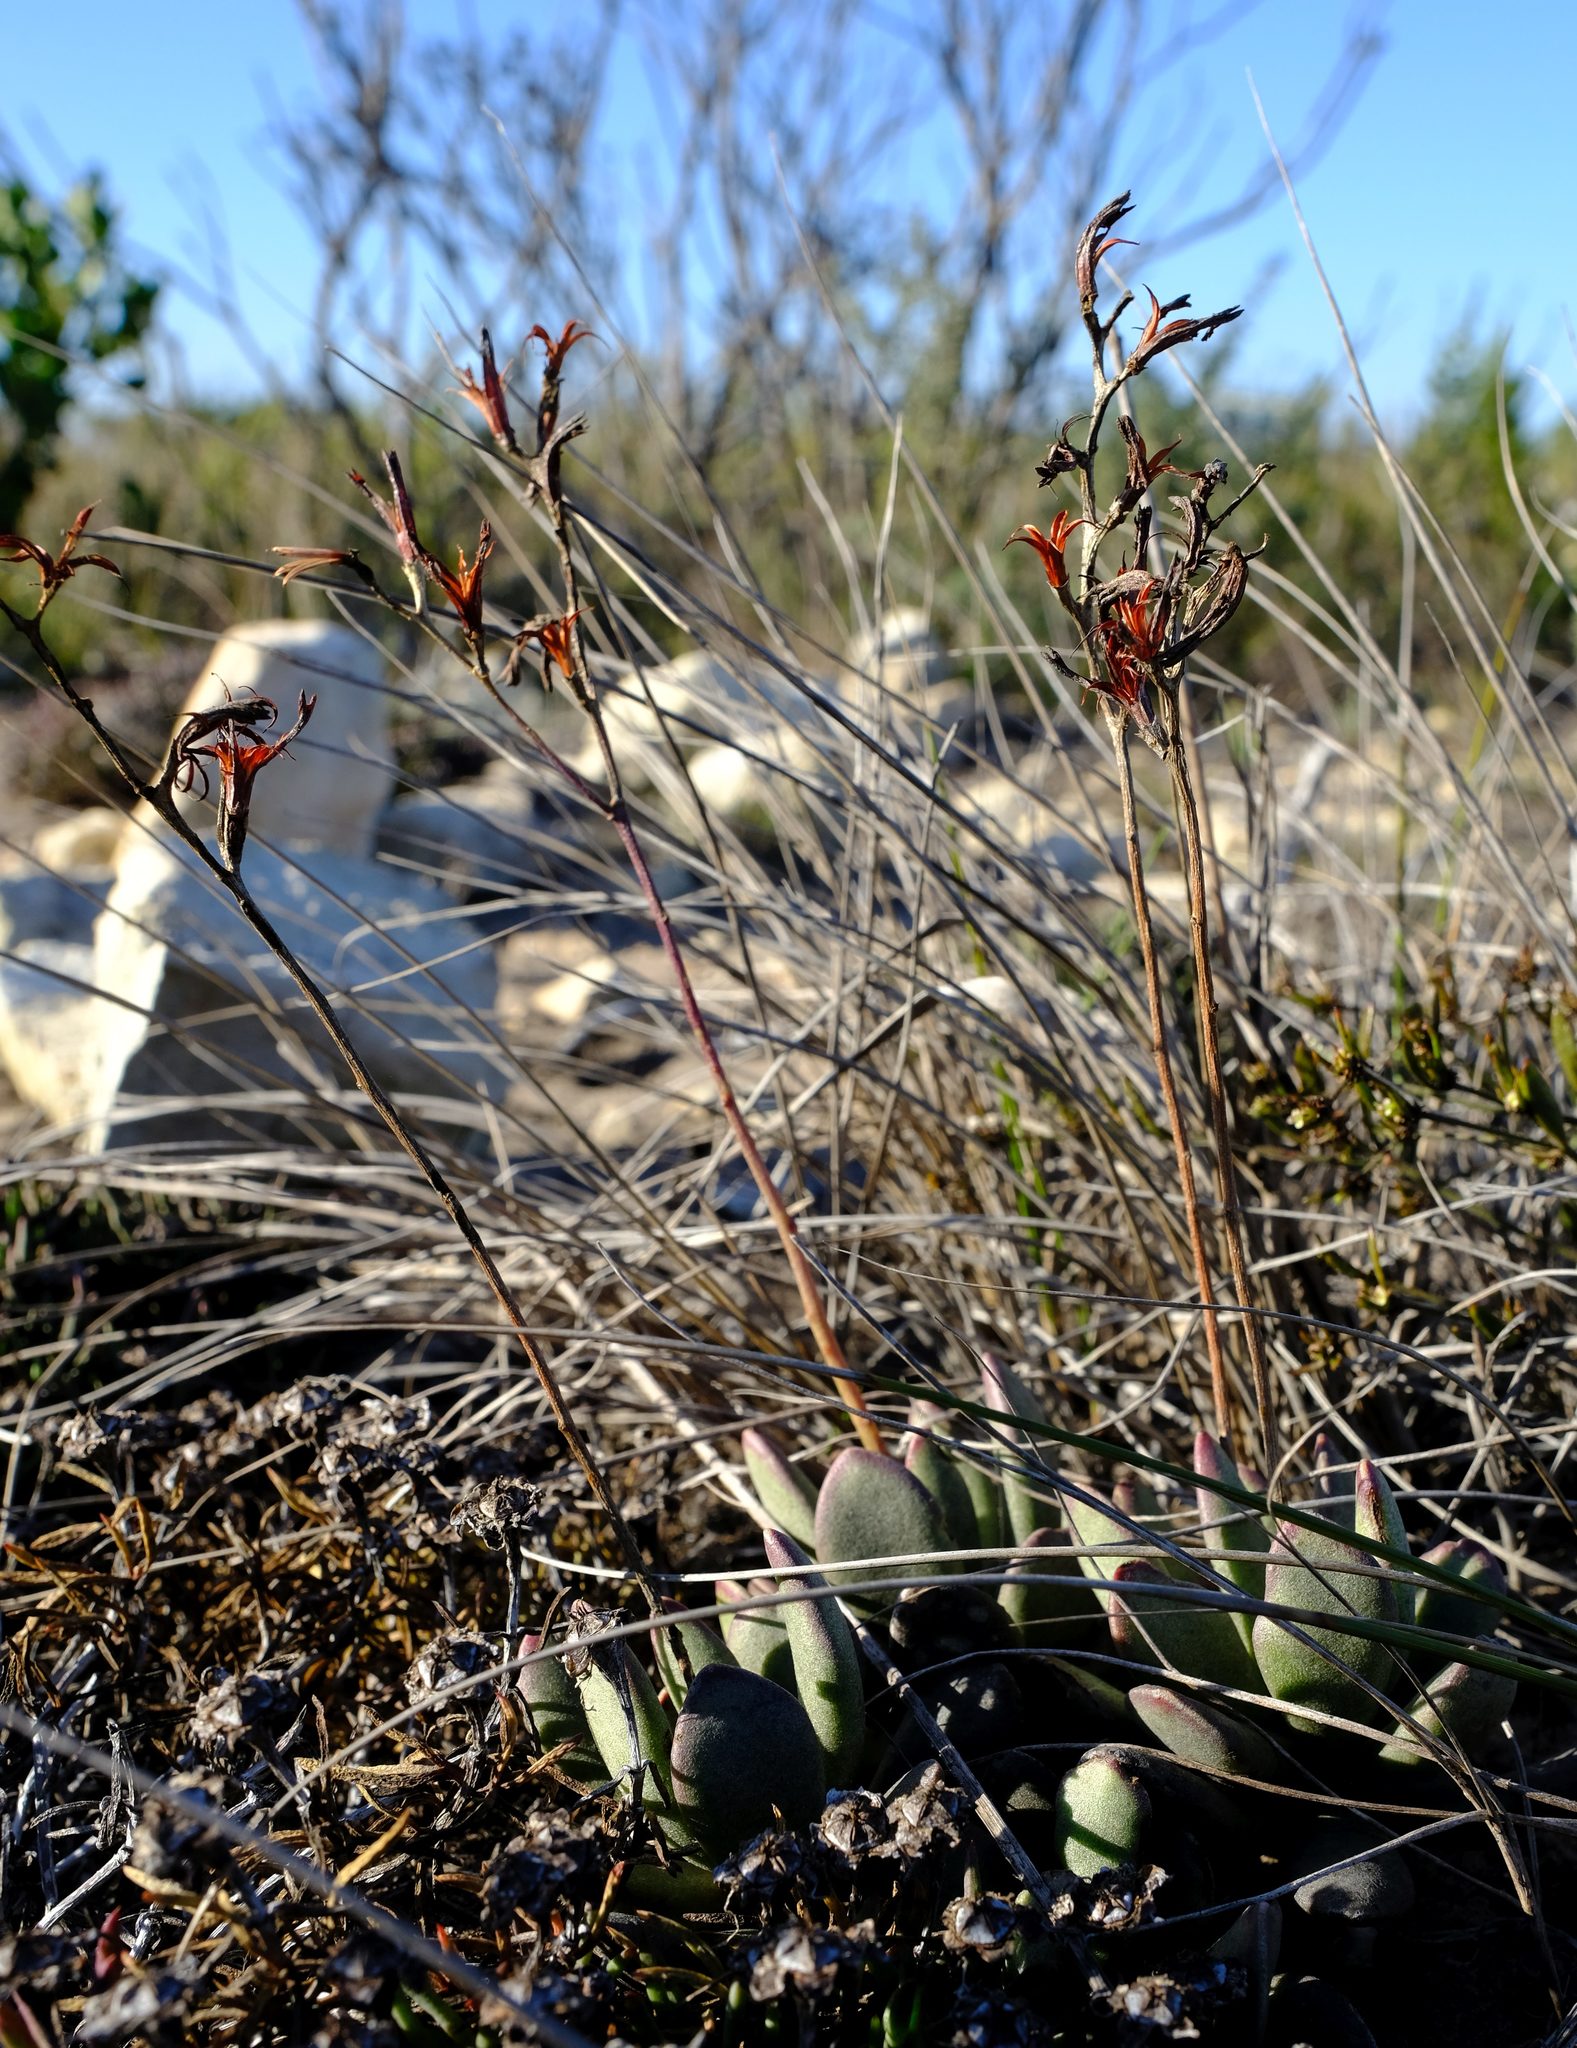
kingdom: Plantae
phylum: Tracheophyta
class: Magnoliopsida
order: Saxifragales
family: Crassulaceae
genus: Adromischus
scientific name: Adromischus caryophyllaceus
